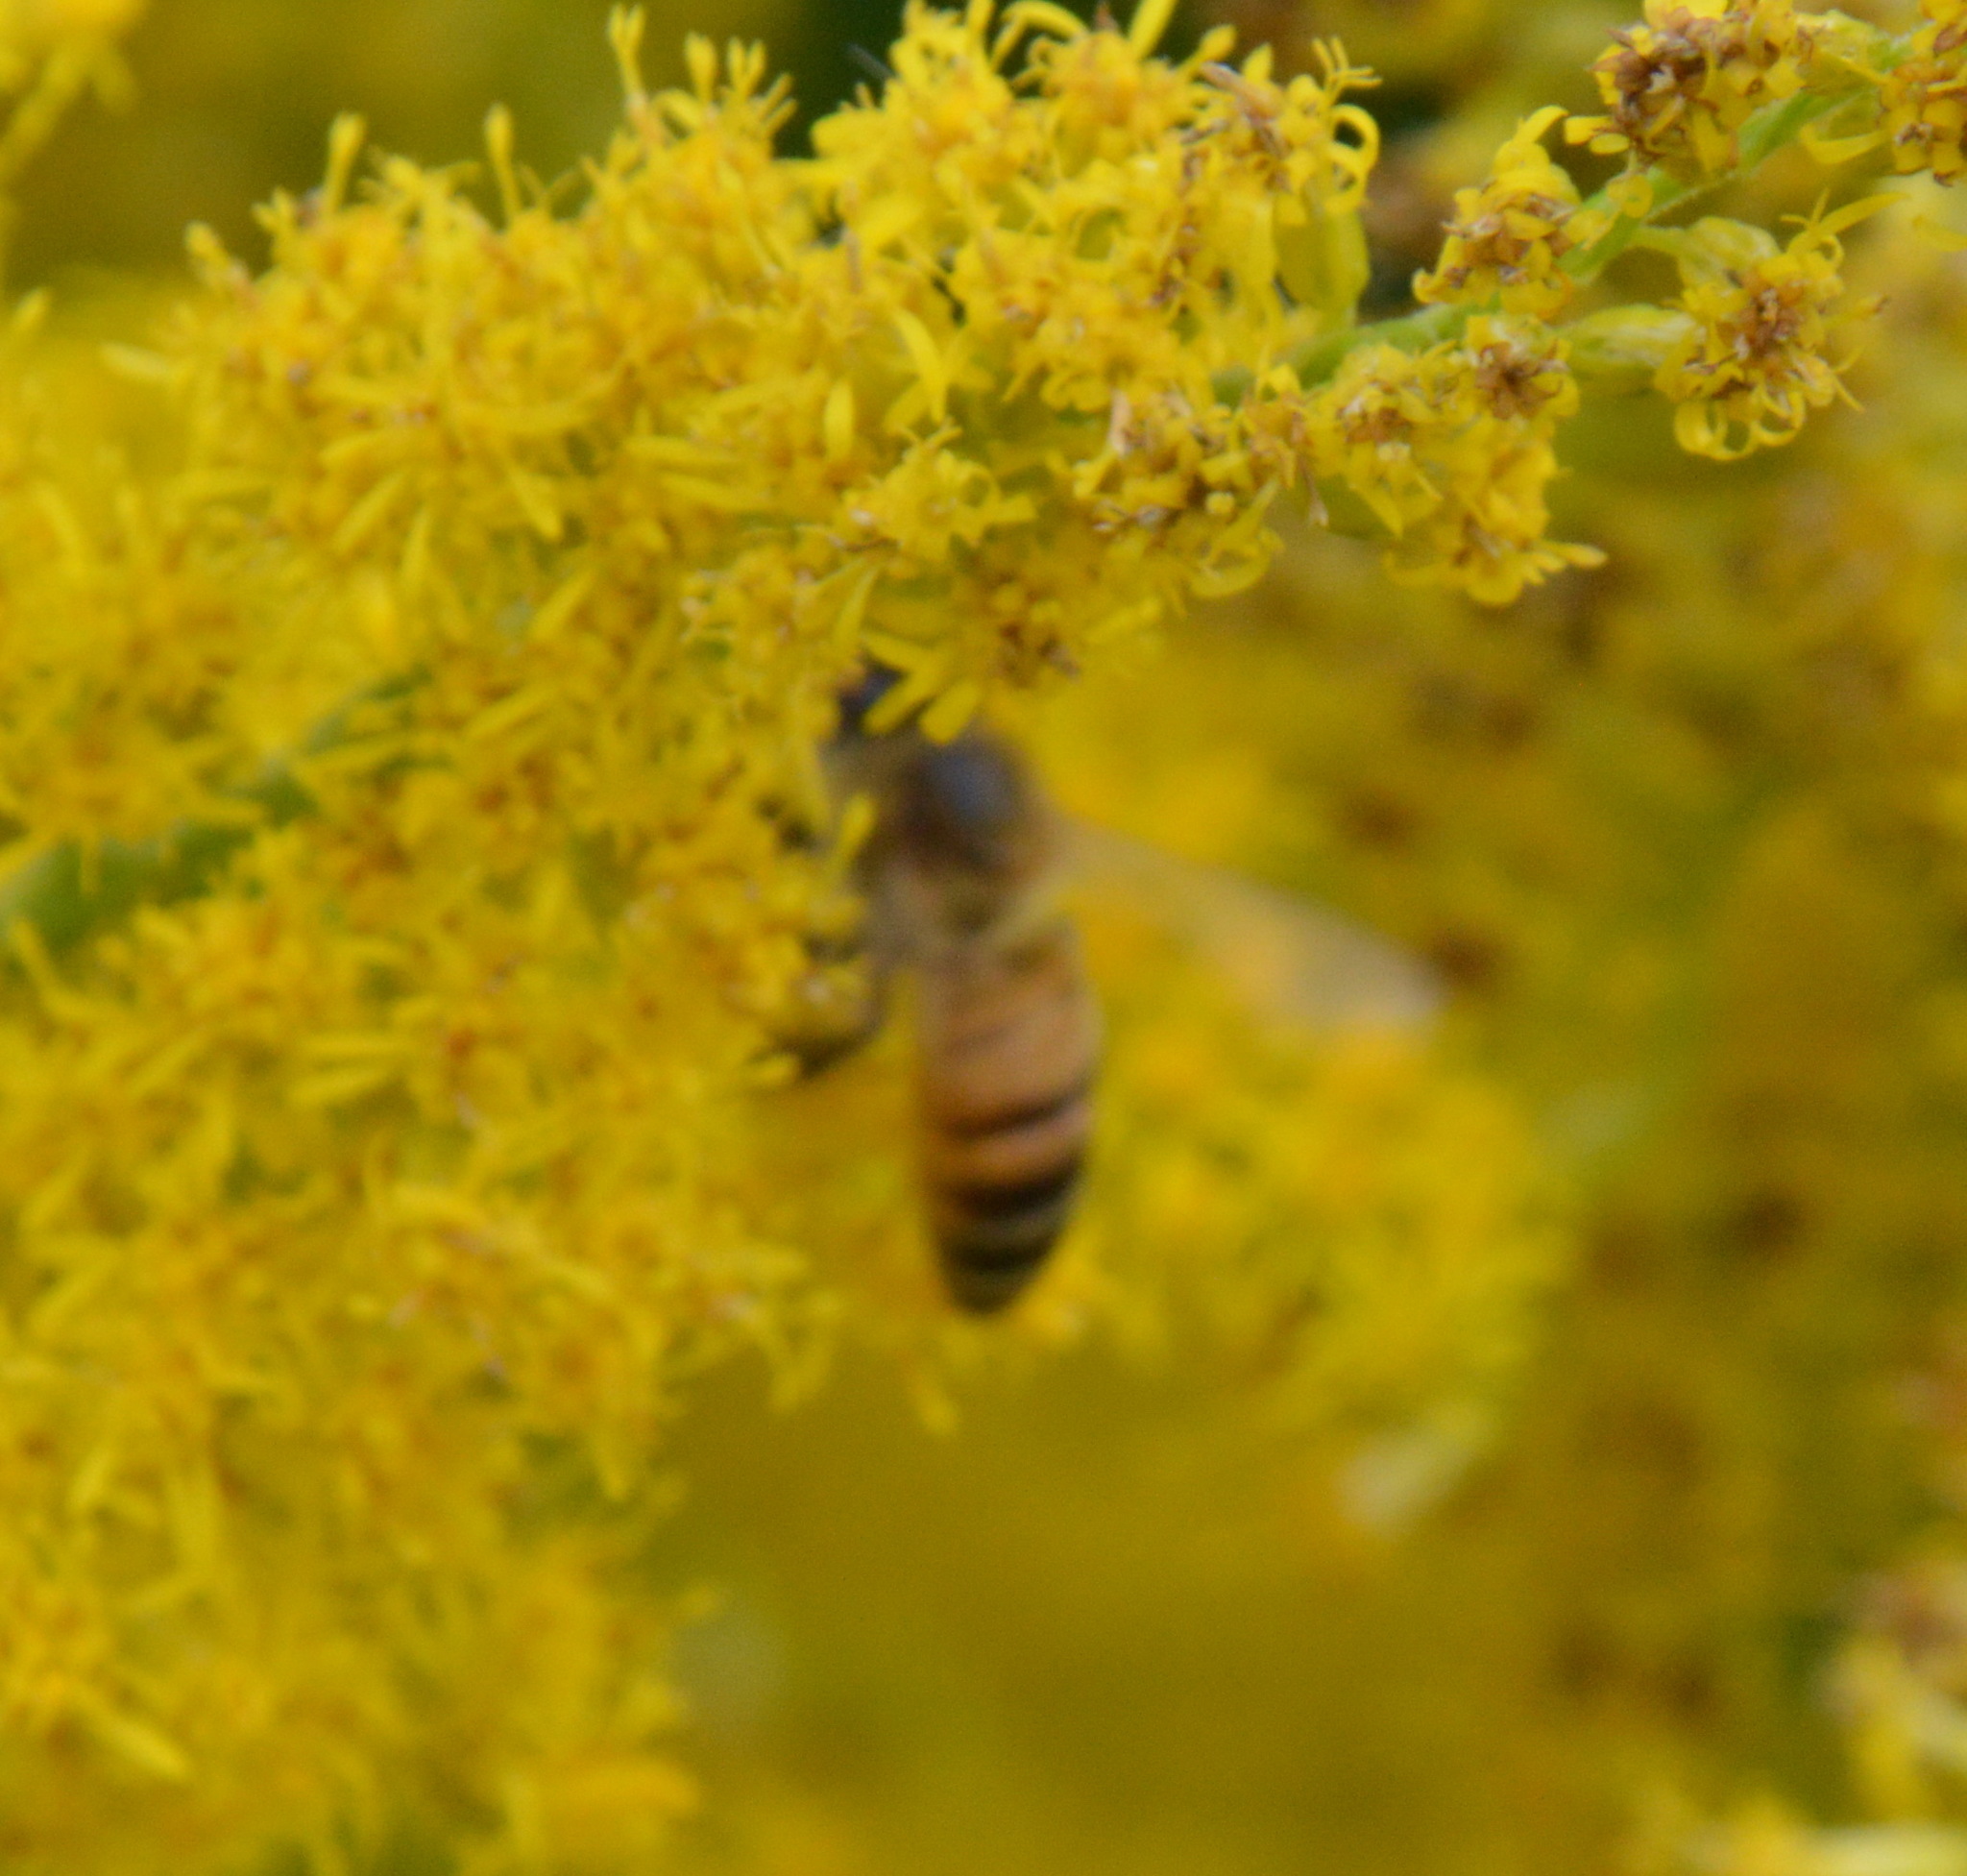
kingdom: Animalia
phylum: Arthropoda
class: Insecta
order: Hymenoptera
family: Apidae
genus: Apis
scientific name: Apis mellifera
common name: Honey bee
